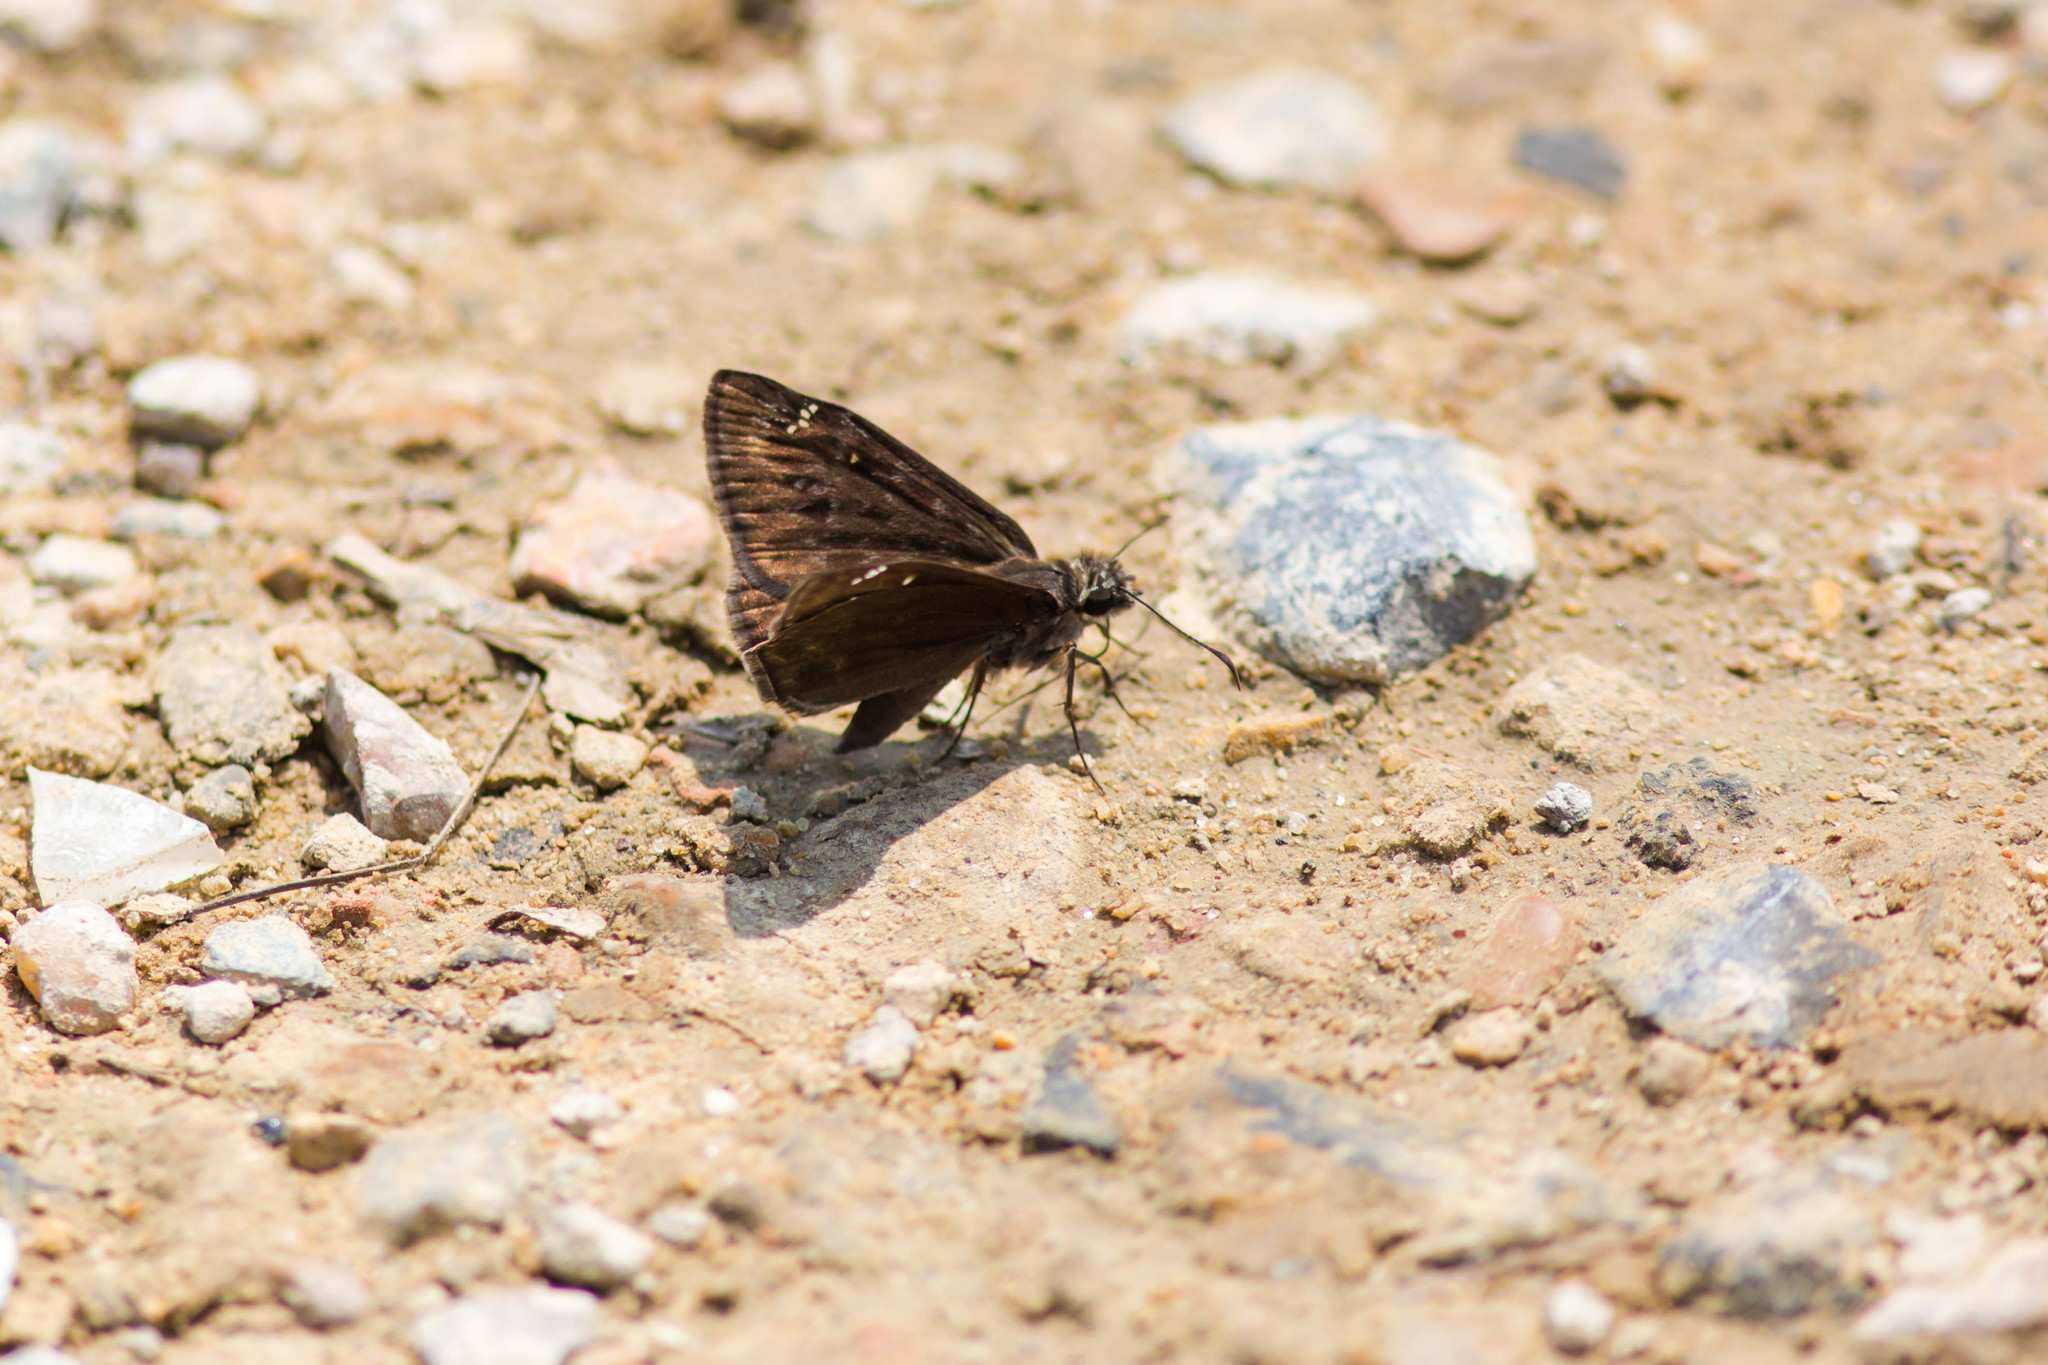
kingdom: Animalia
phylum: Arthropoda
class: Insecta
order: Lepidoptera
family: Hesperiidae
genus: Erynnis
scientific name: Erynnis horatius
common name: Horace's duskywing
